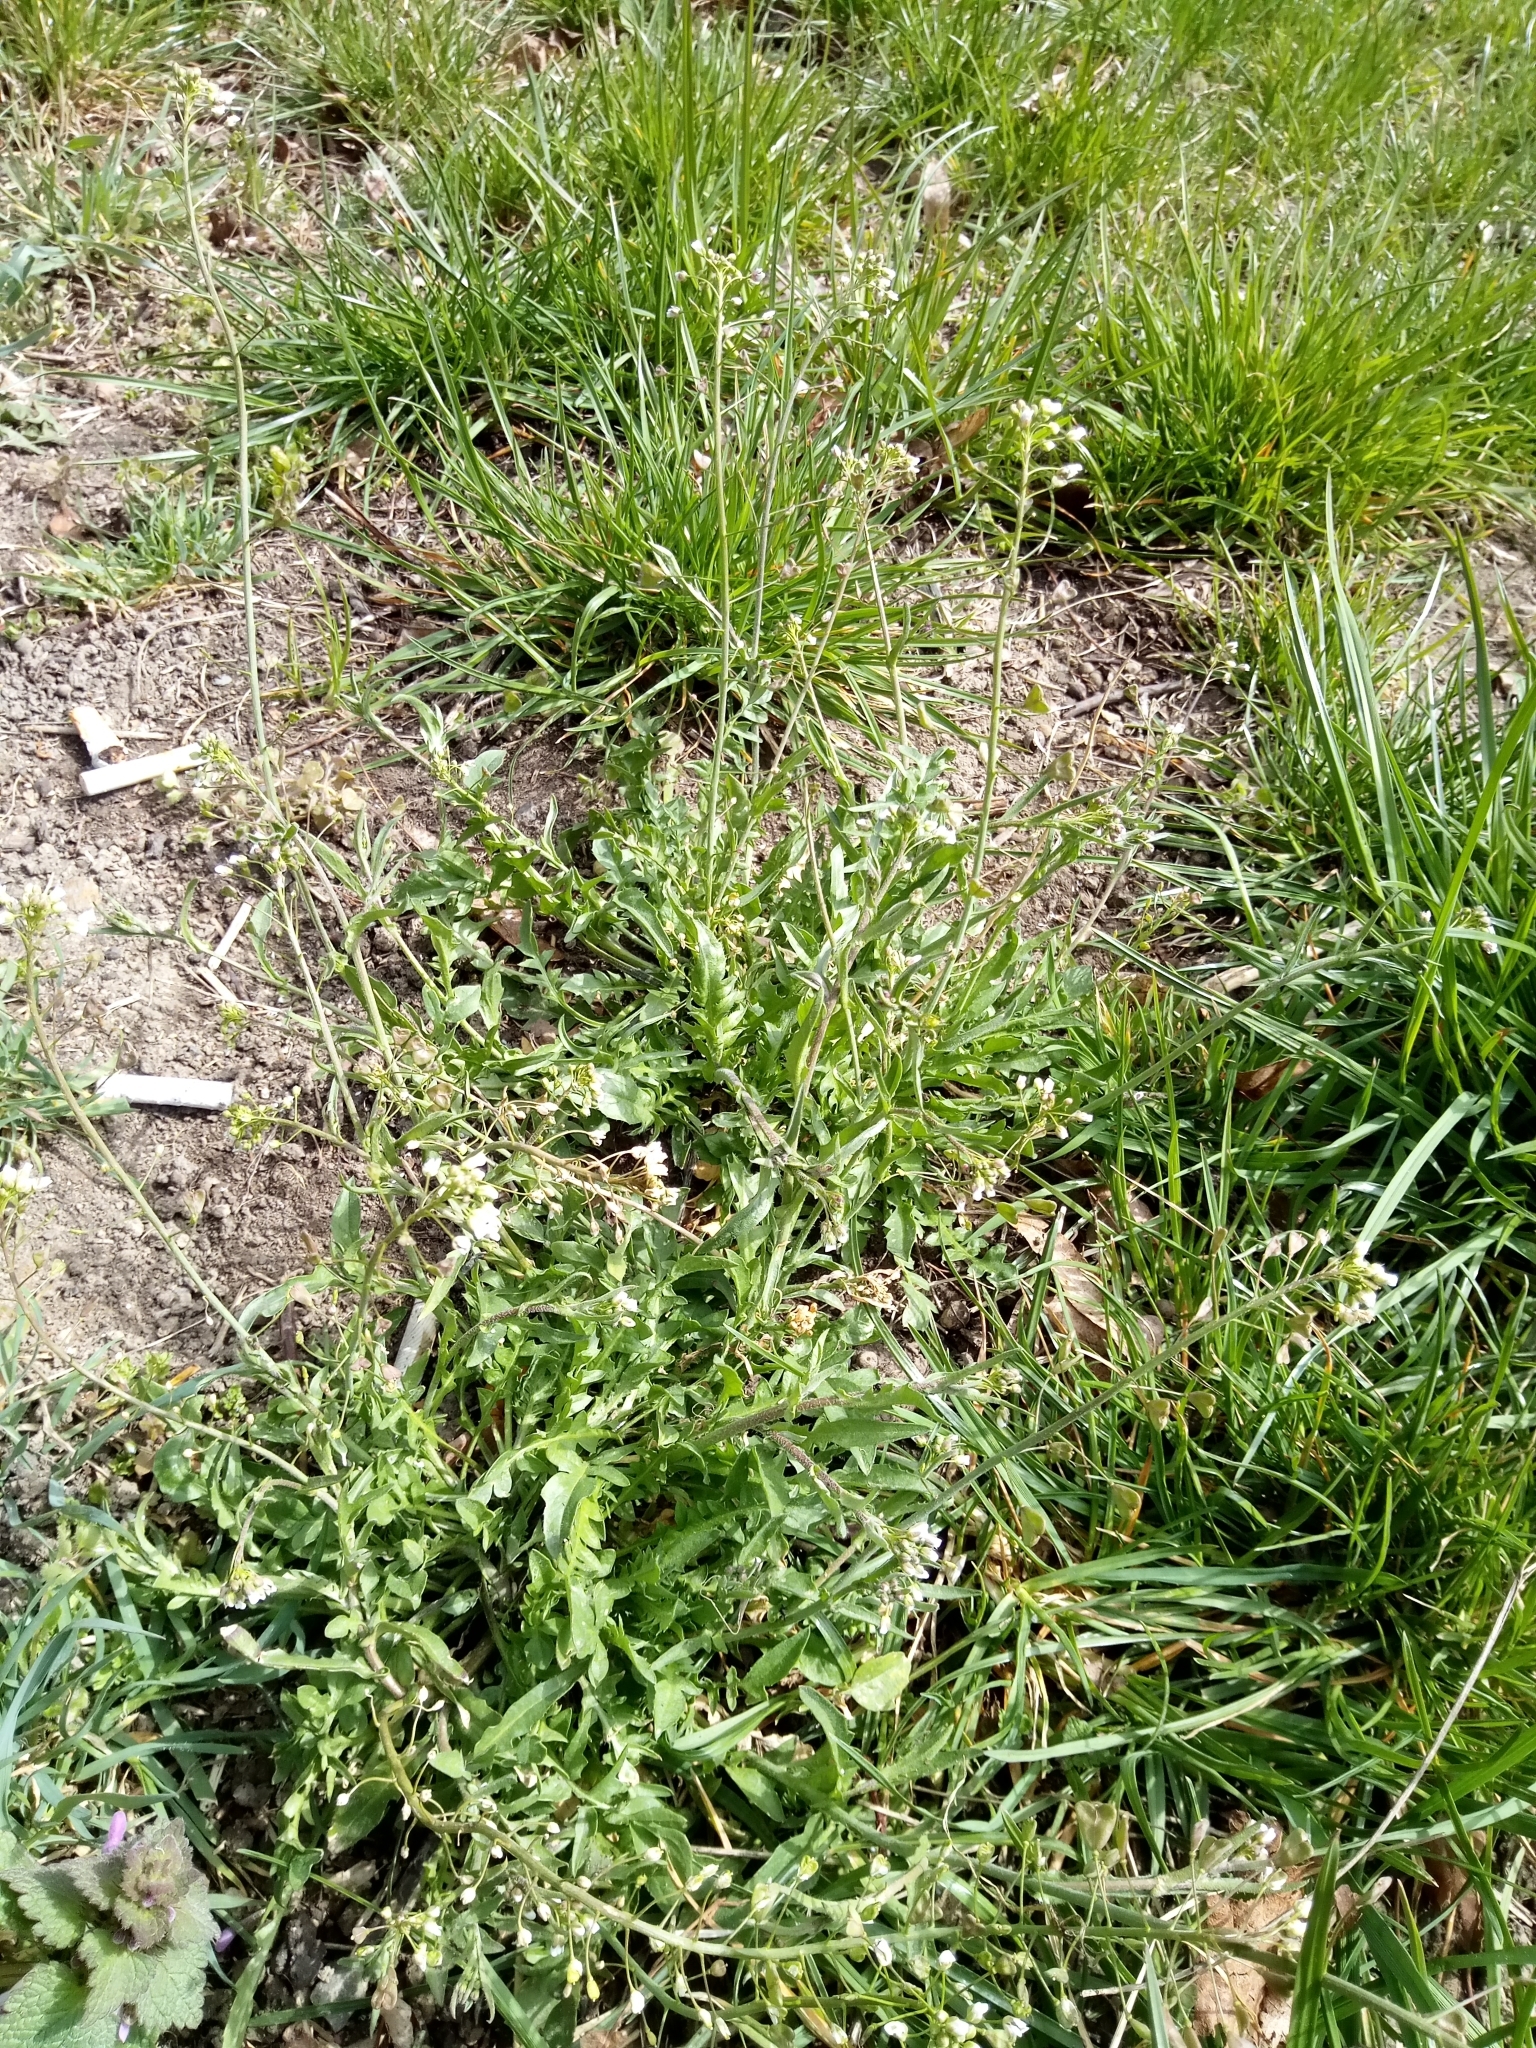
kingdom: Plantae
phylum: Tracheophyta
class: Magnoliopsida
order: Brassicales
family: Brassicaceae
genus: Capsella
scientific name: Capsella bursa-pastoris
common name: Shepherd's purse
